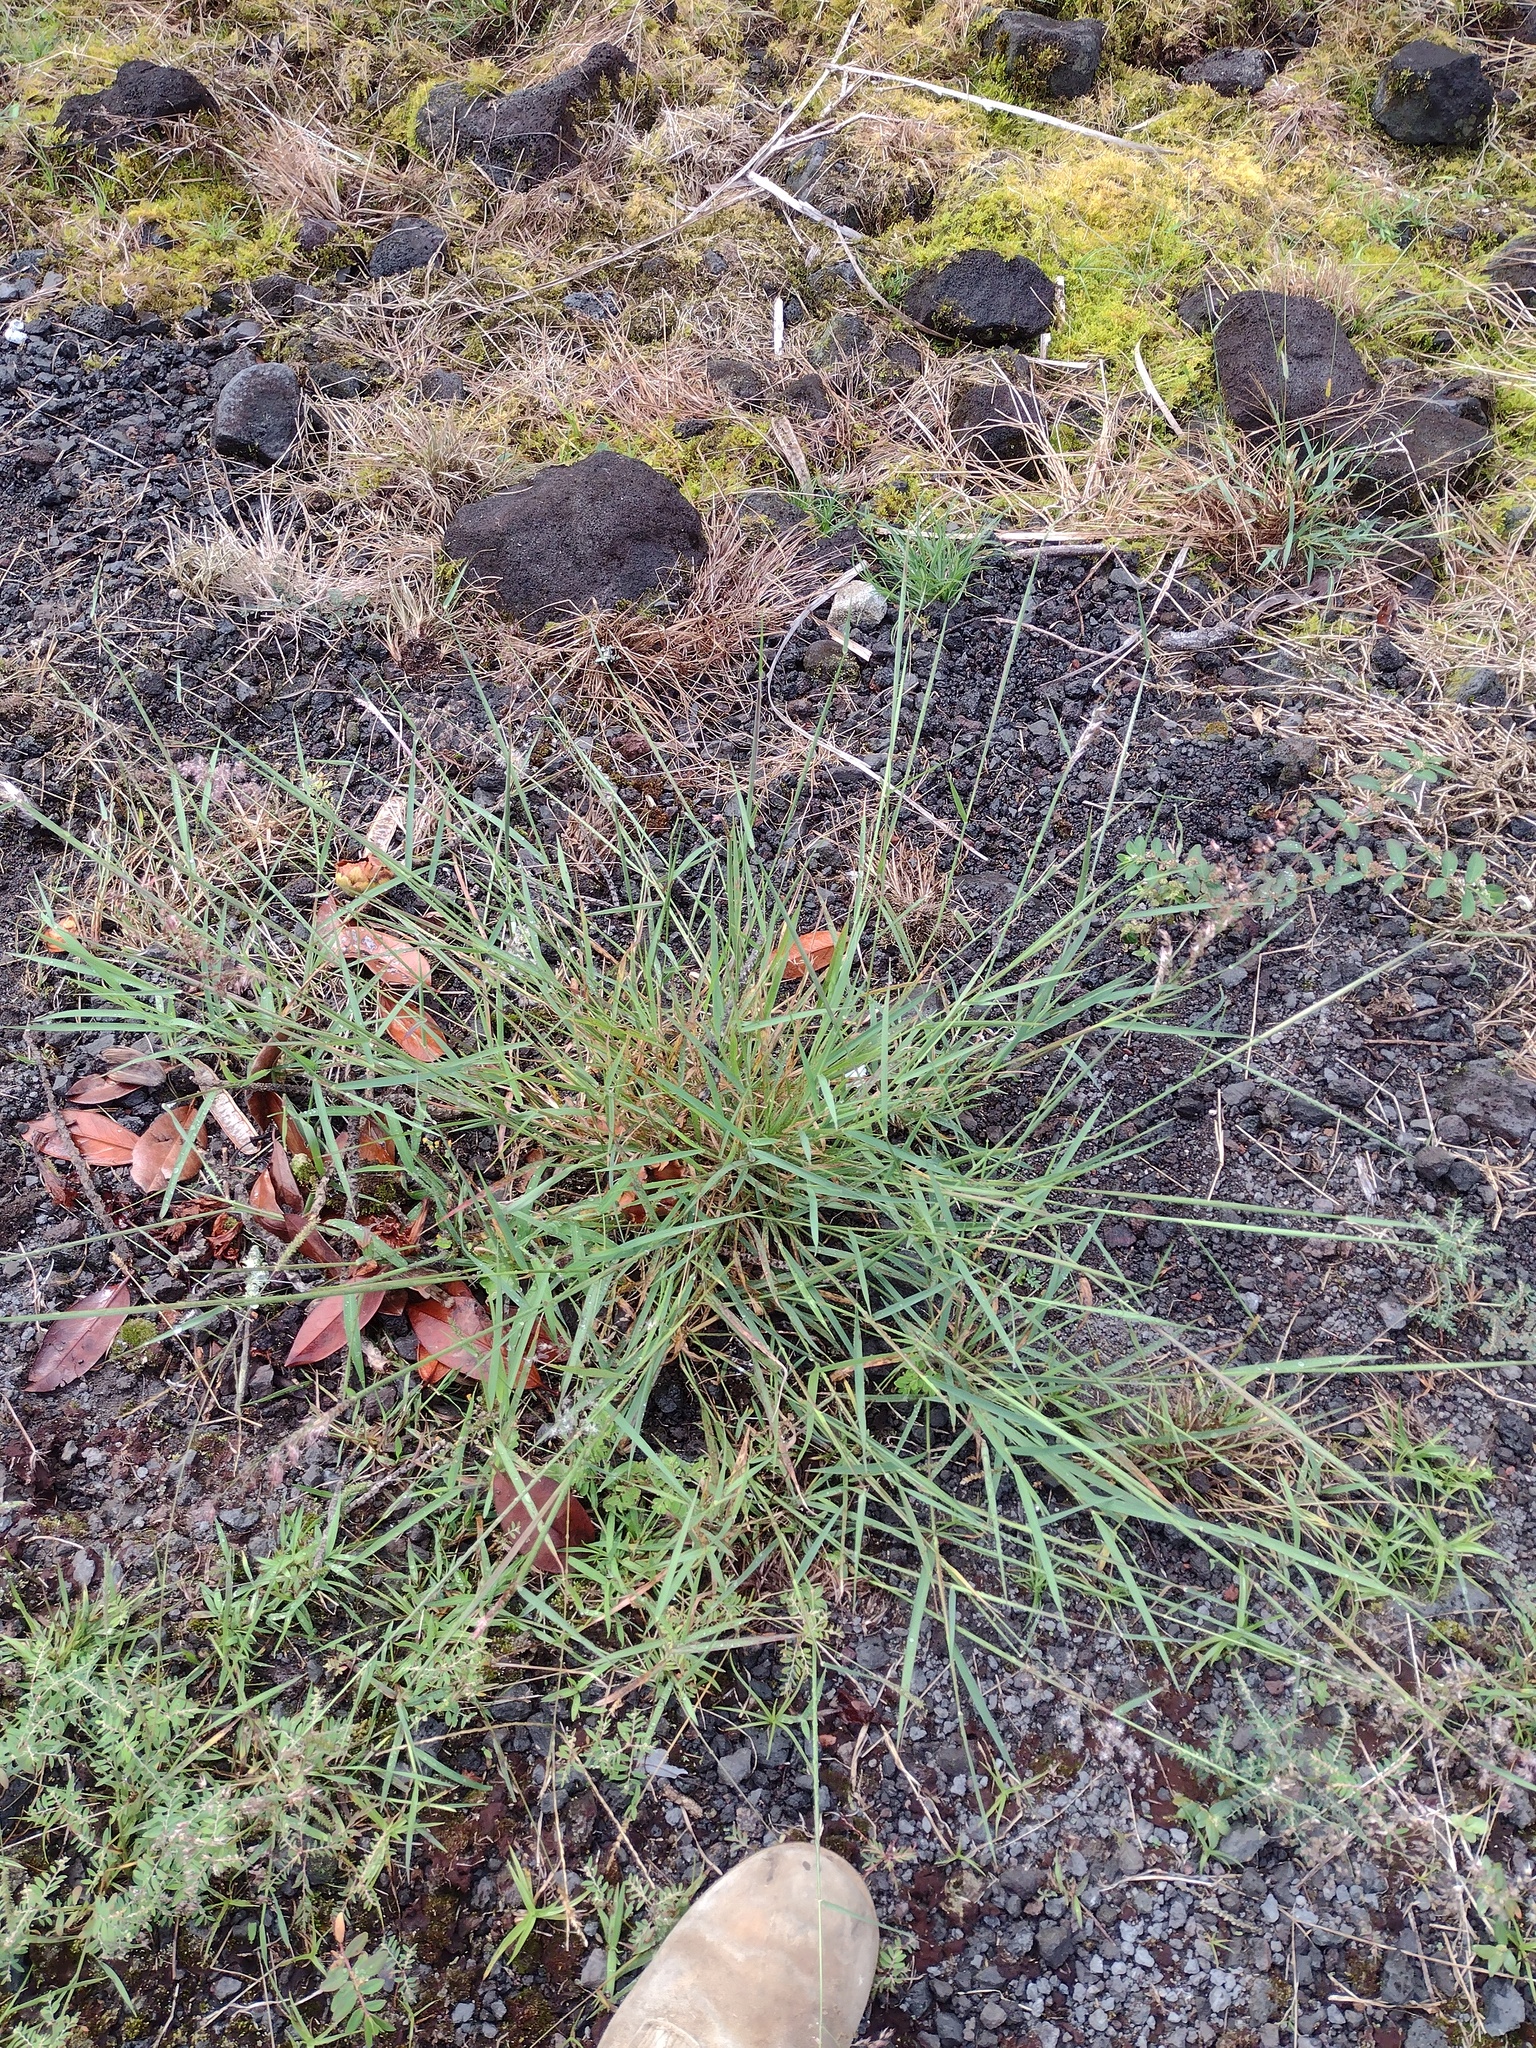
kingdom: Plantae
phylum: Tracheophyta
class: Liliopsida
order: Poales
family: Poaceae
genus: Melinis
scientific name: Melinis repens
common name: Rose natal grass
